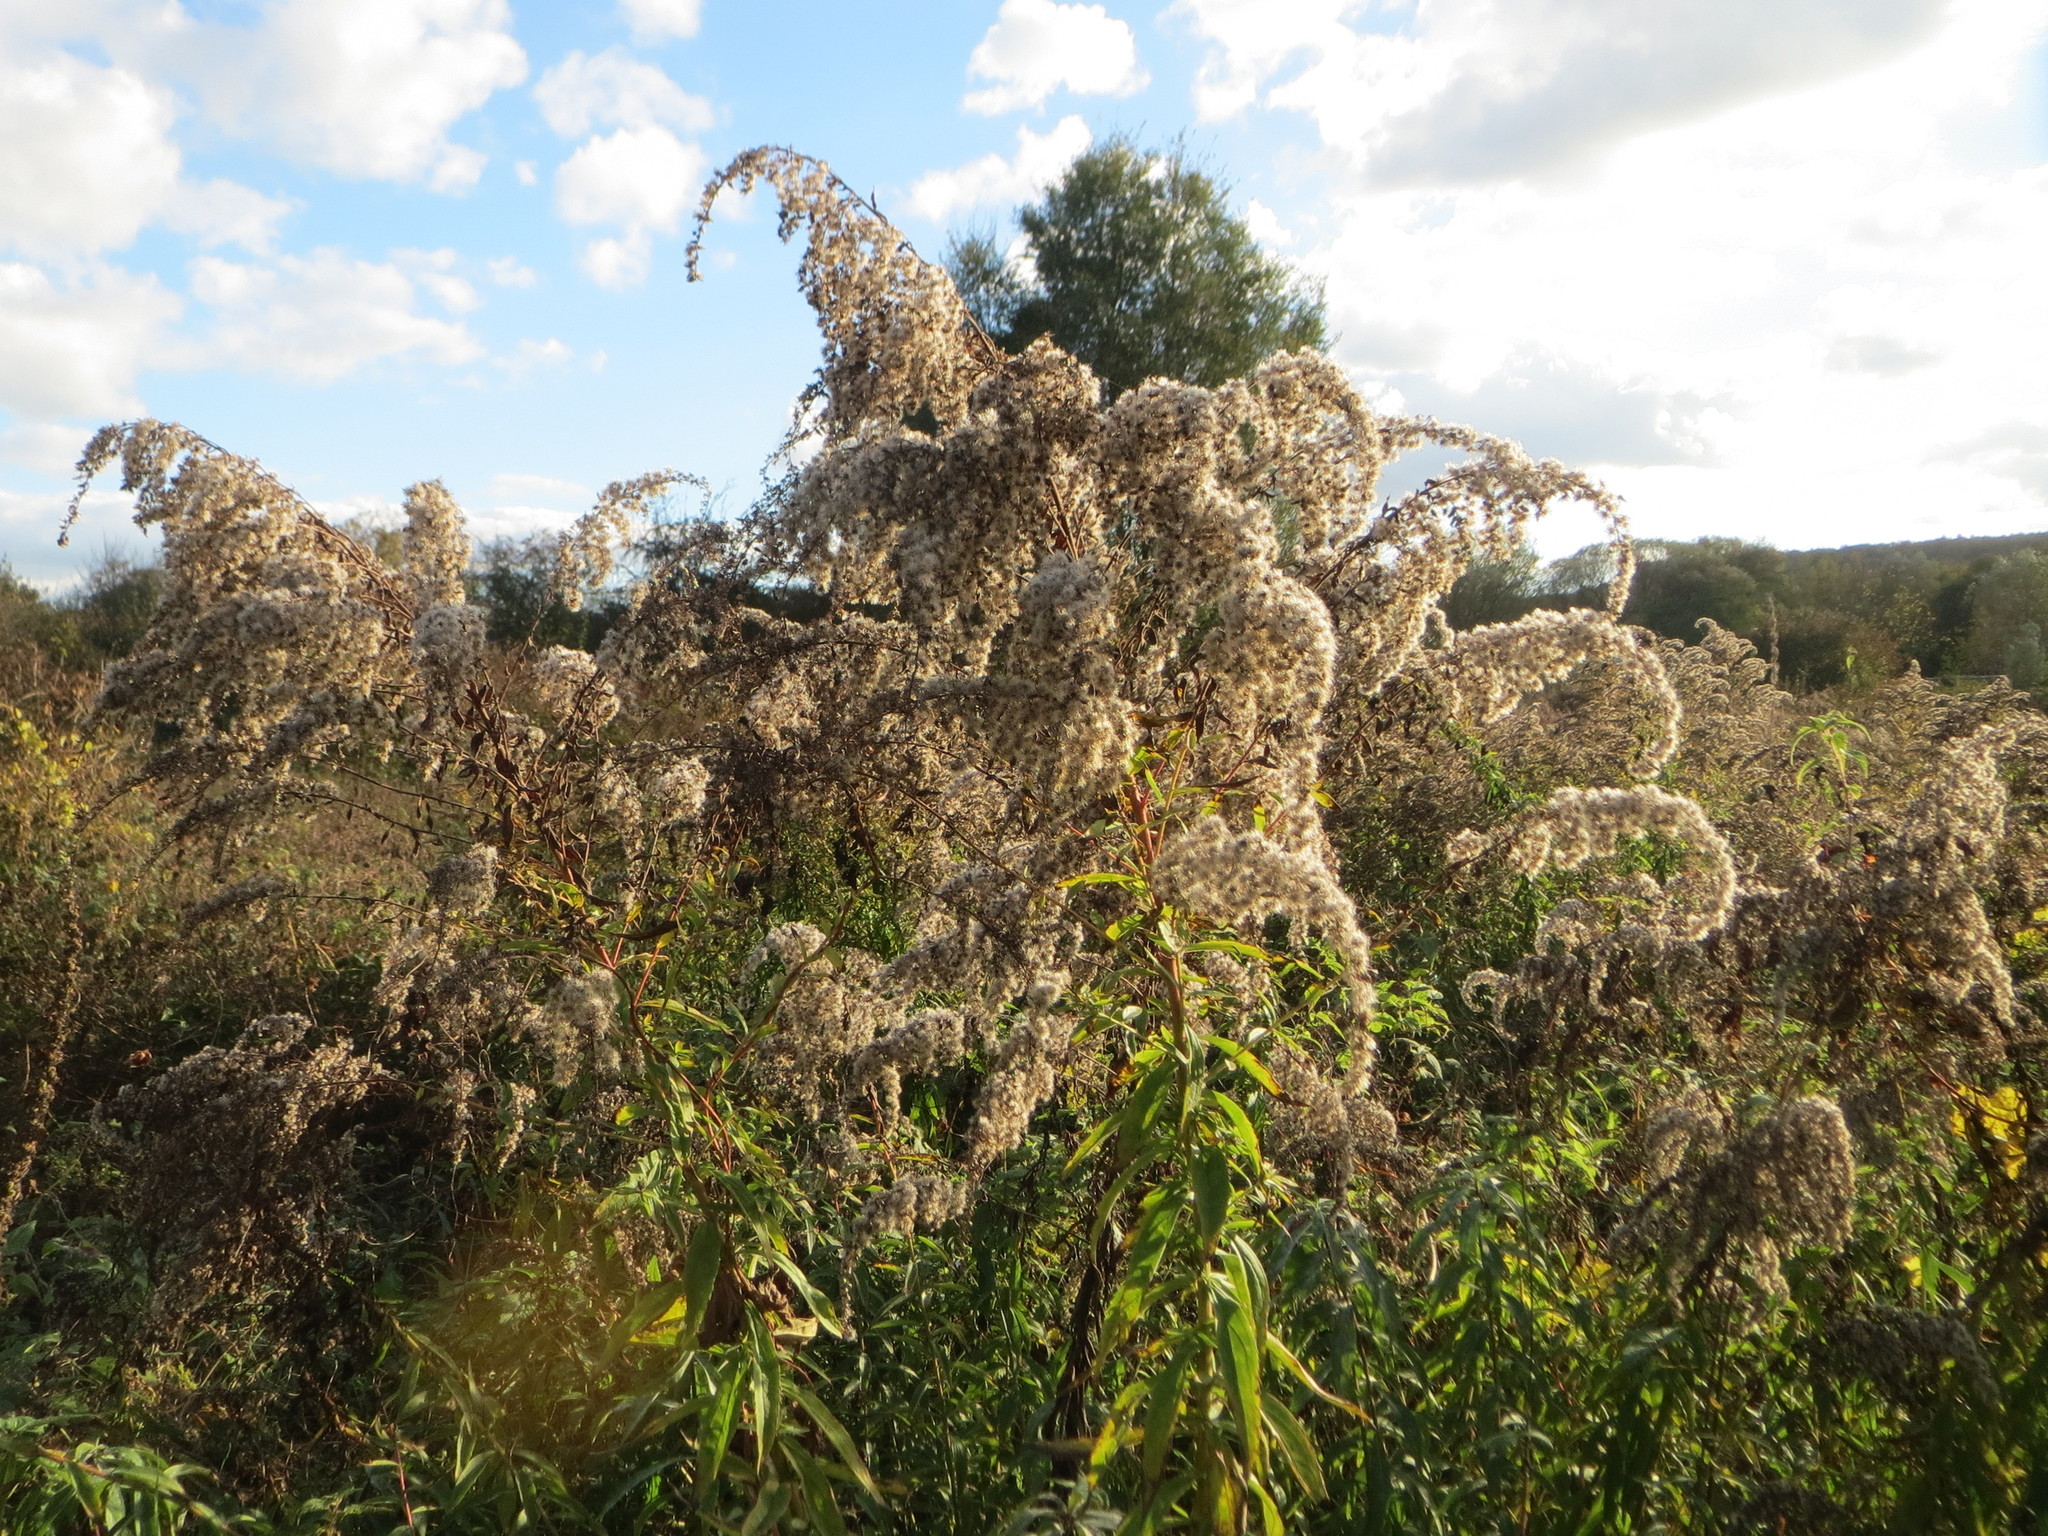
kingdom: Plantae
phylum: Tracheophyta
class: Magnoliopsida
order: Asterales
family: Asteraceae
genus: Solidago
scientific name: Solidago gigantea
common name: Giant goldenrod
